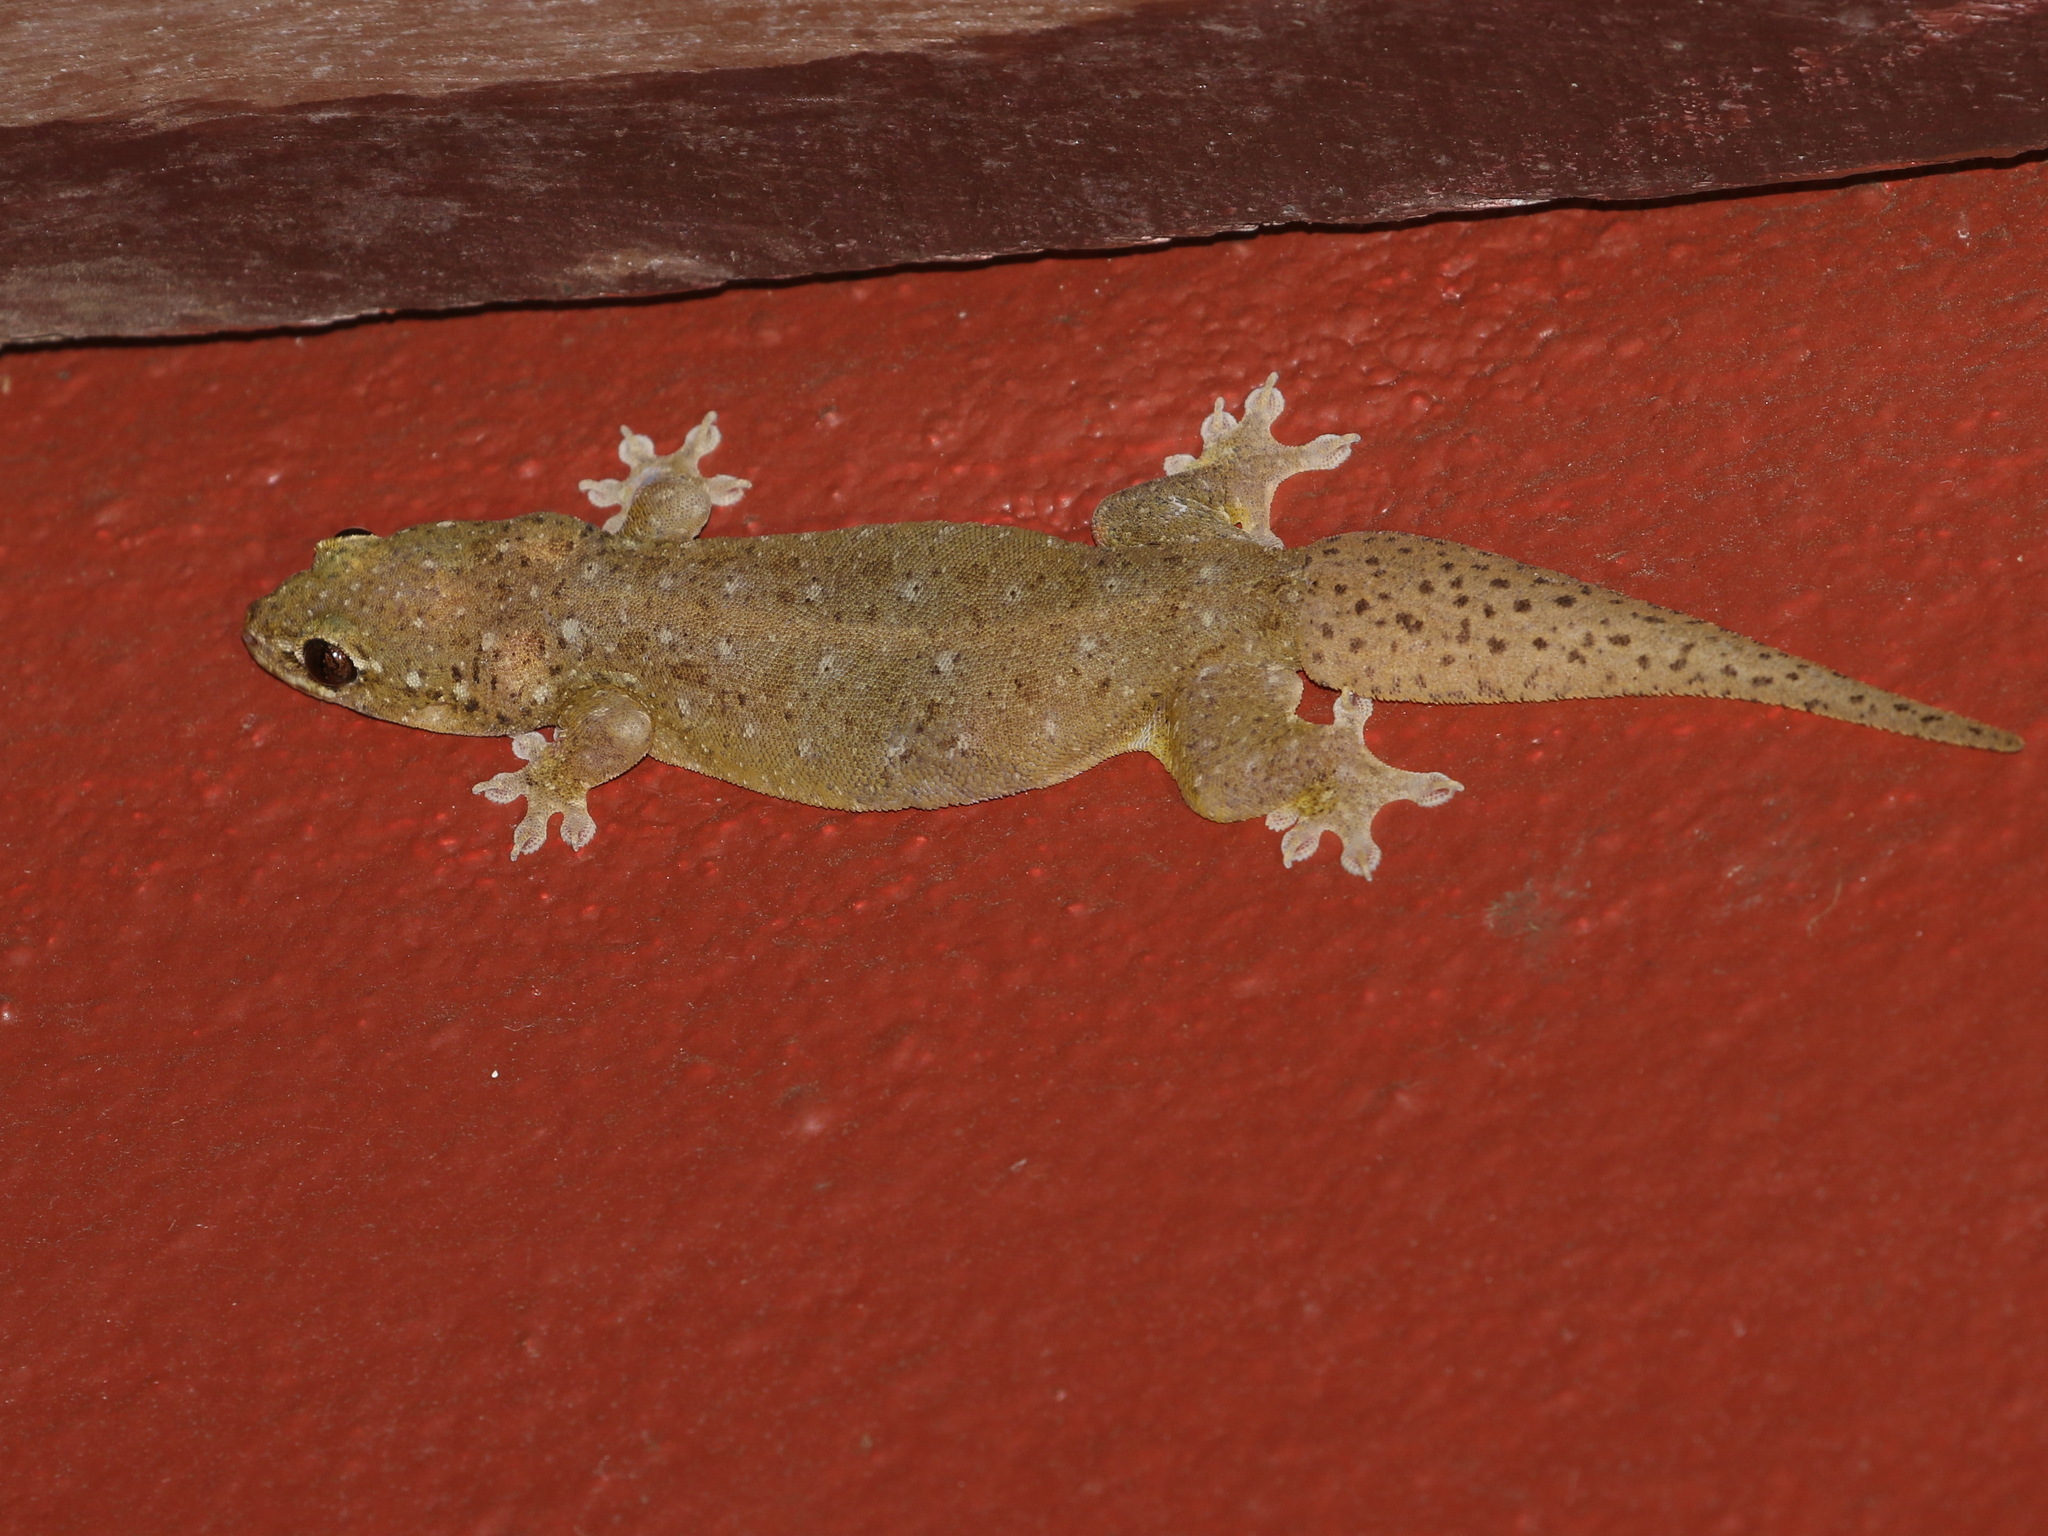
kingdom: Animalia
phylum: Chordata
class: Squamata
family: Gekkonidae
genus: Gehyra
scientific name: Gehyra lacerata
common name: Kanchanaburi four-clawed gecko
